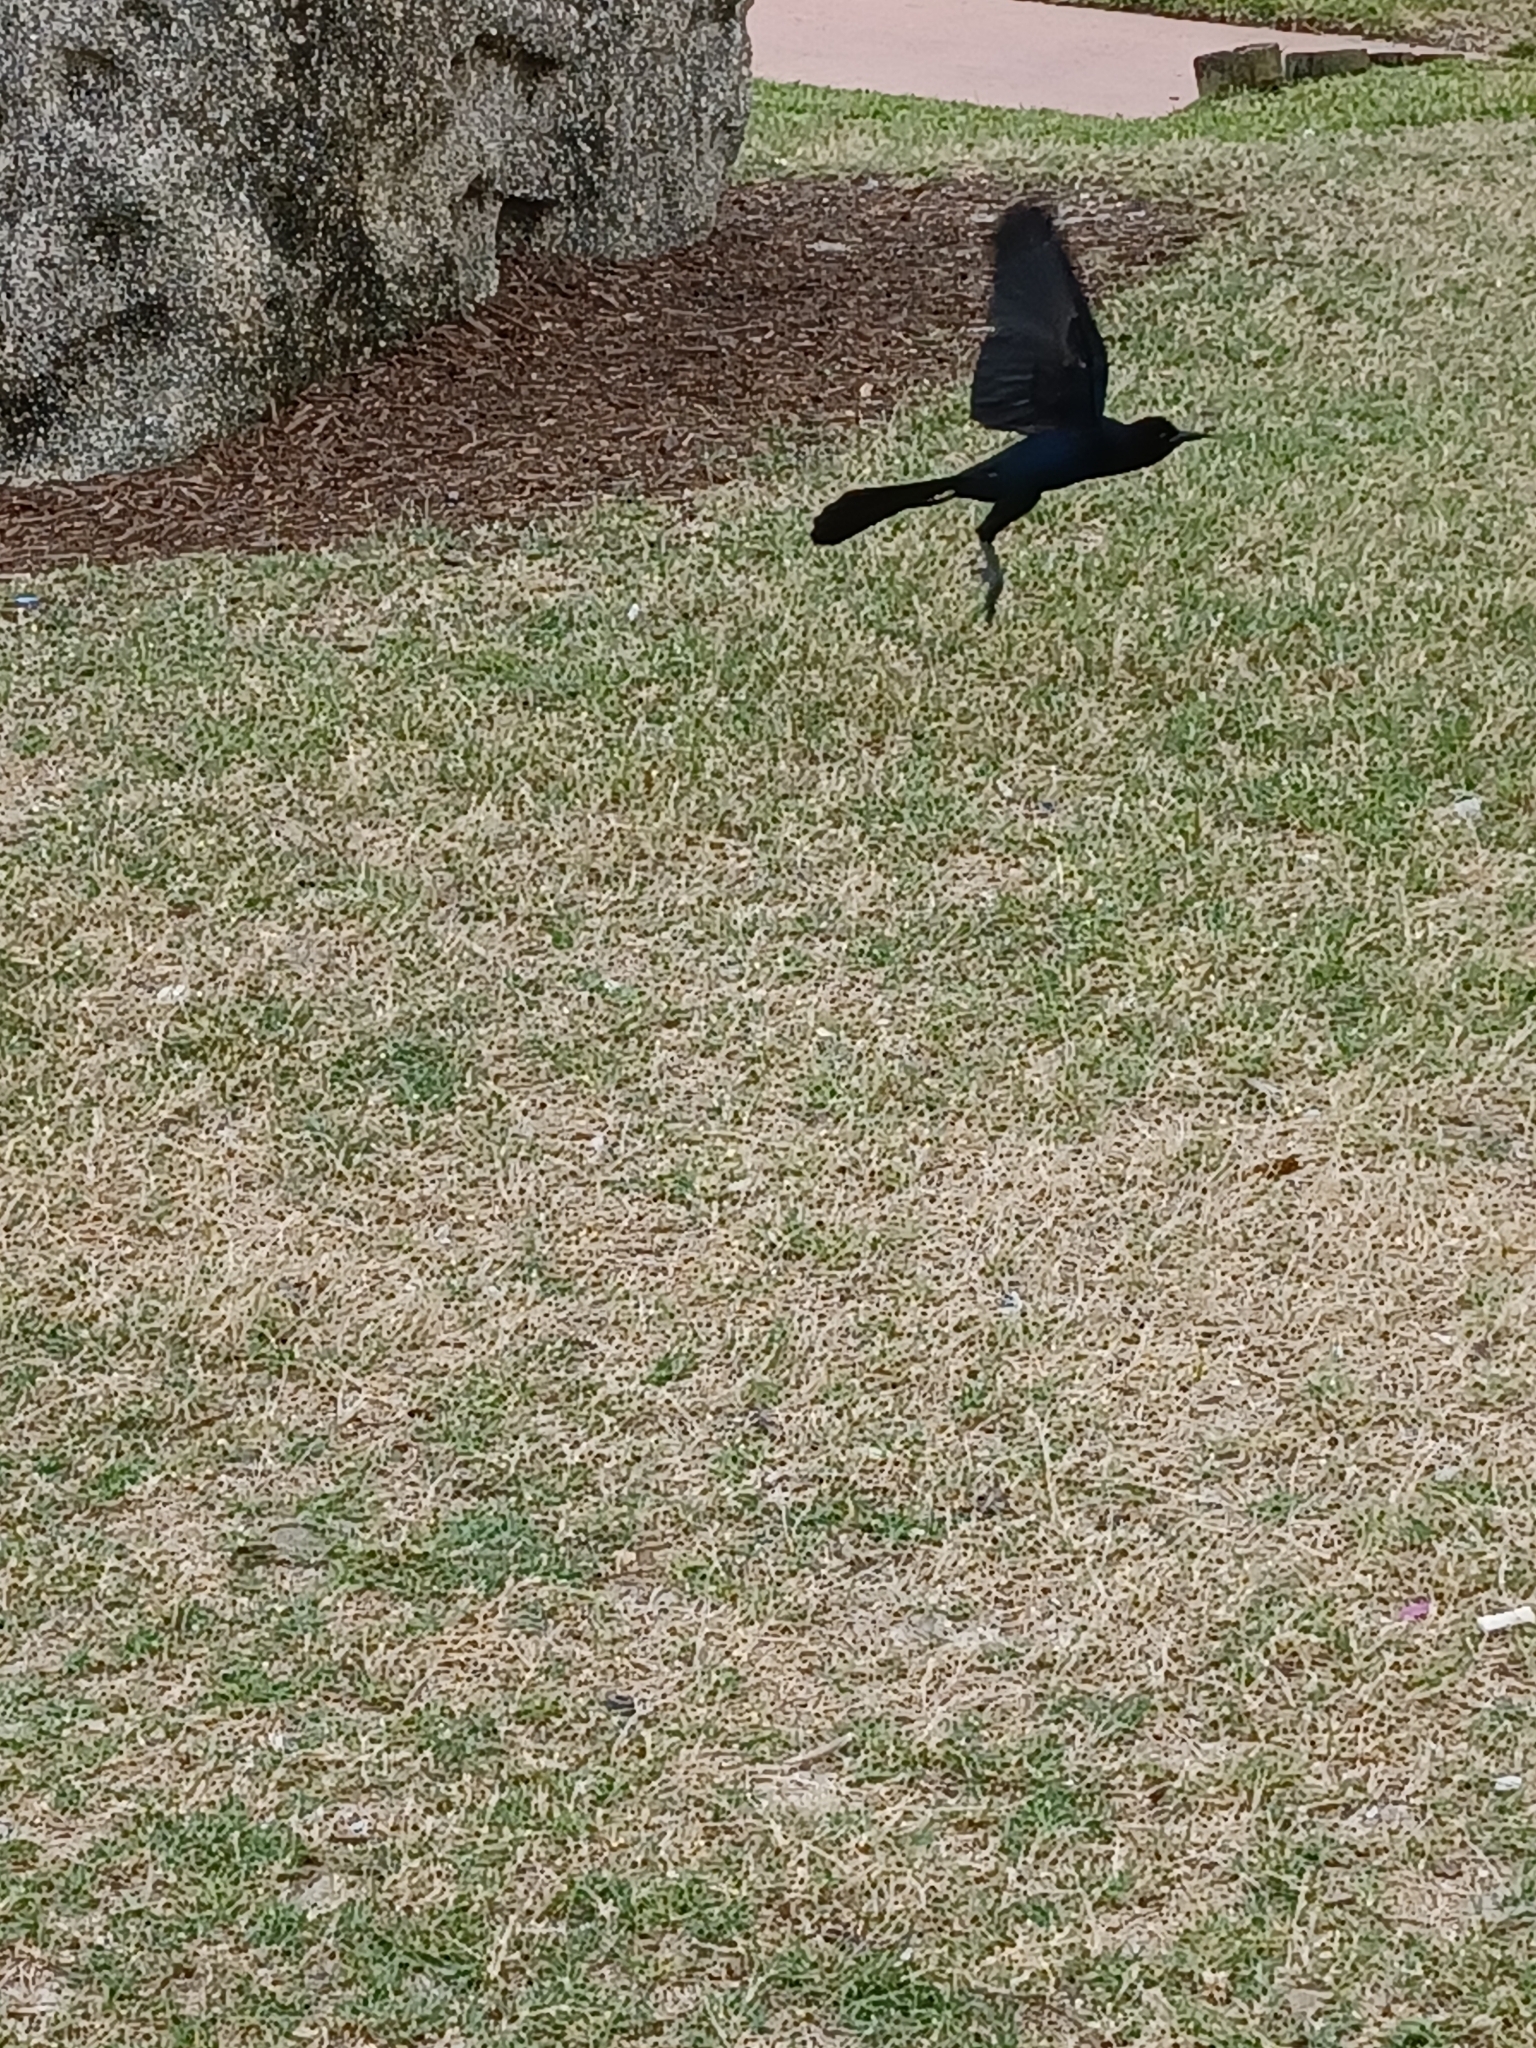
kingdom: Animalia
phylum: Chordata
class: Aves
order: Passeriformes
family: Icteridae
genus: Quiscalus
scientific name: Quiscalus major
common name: Boat-tailed grackle
